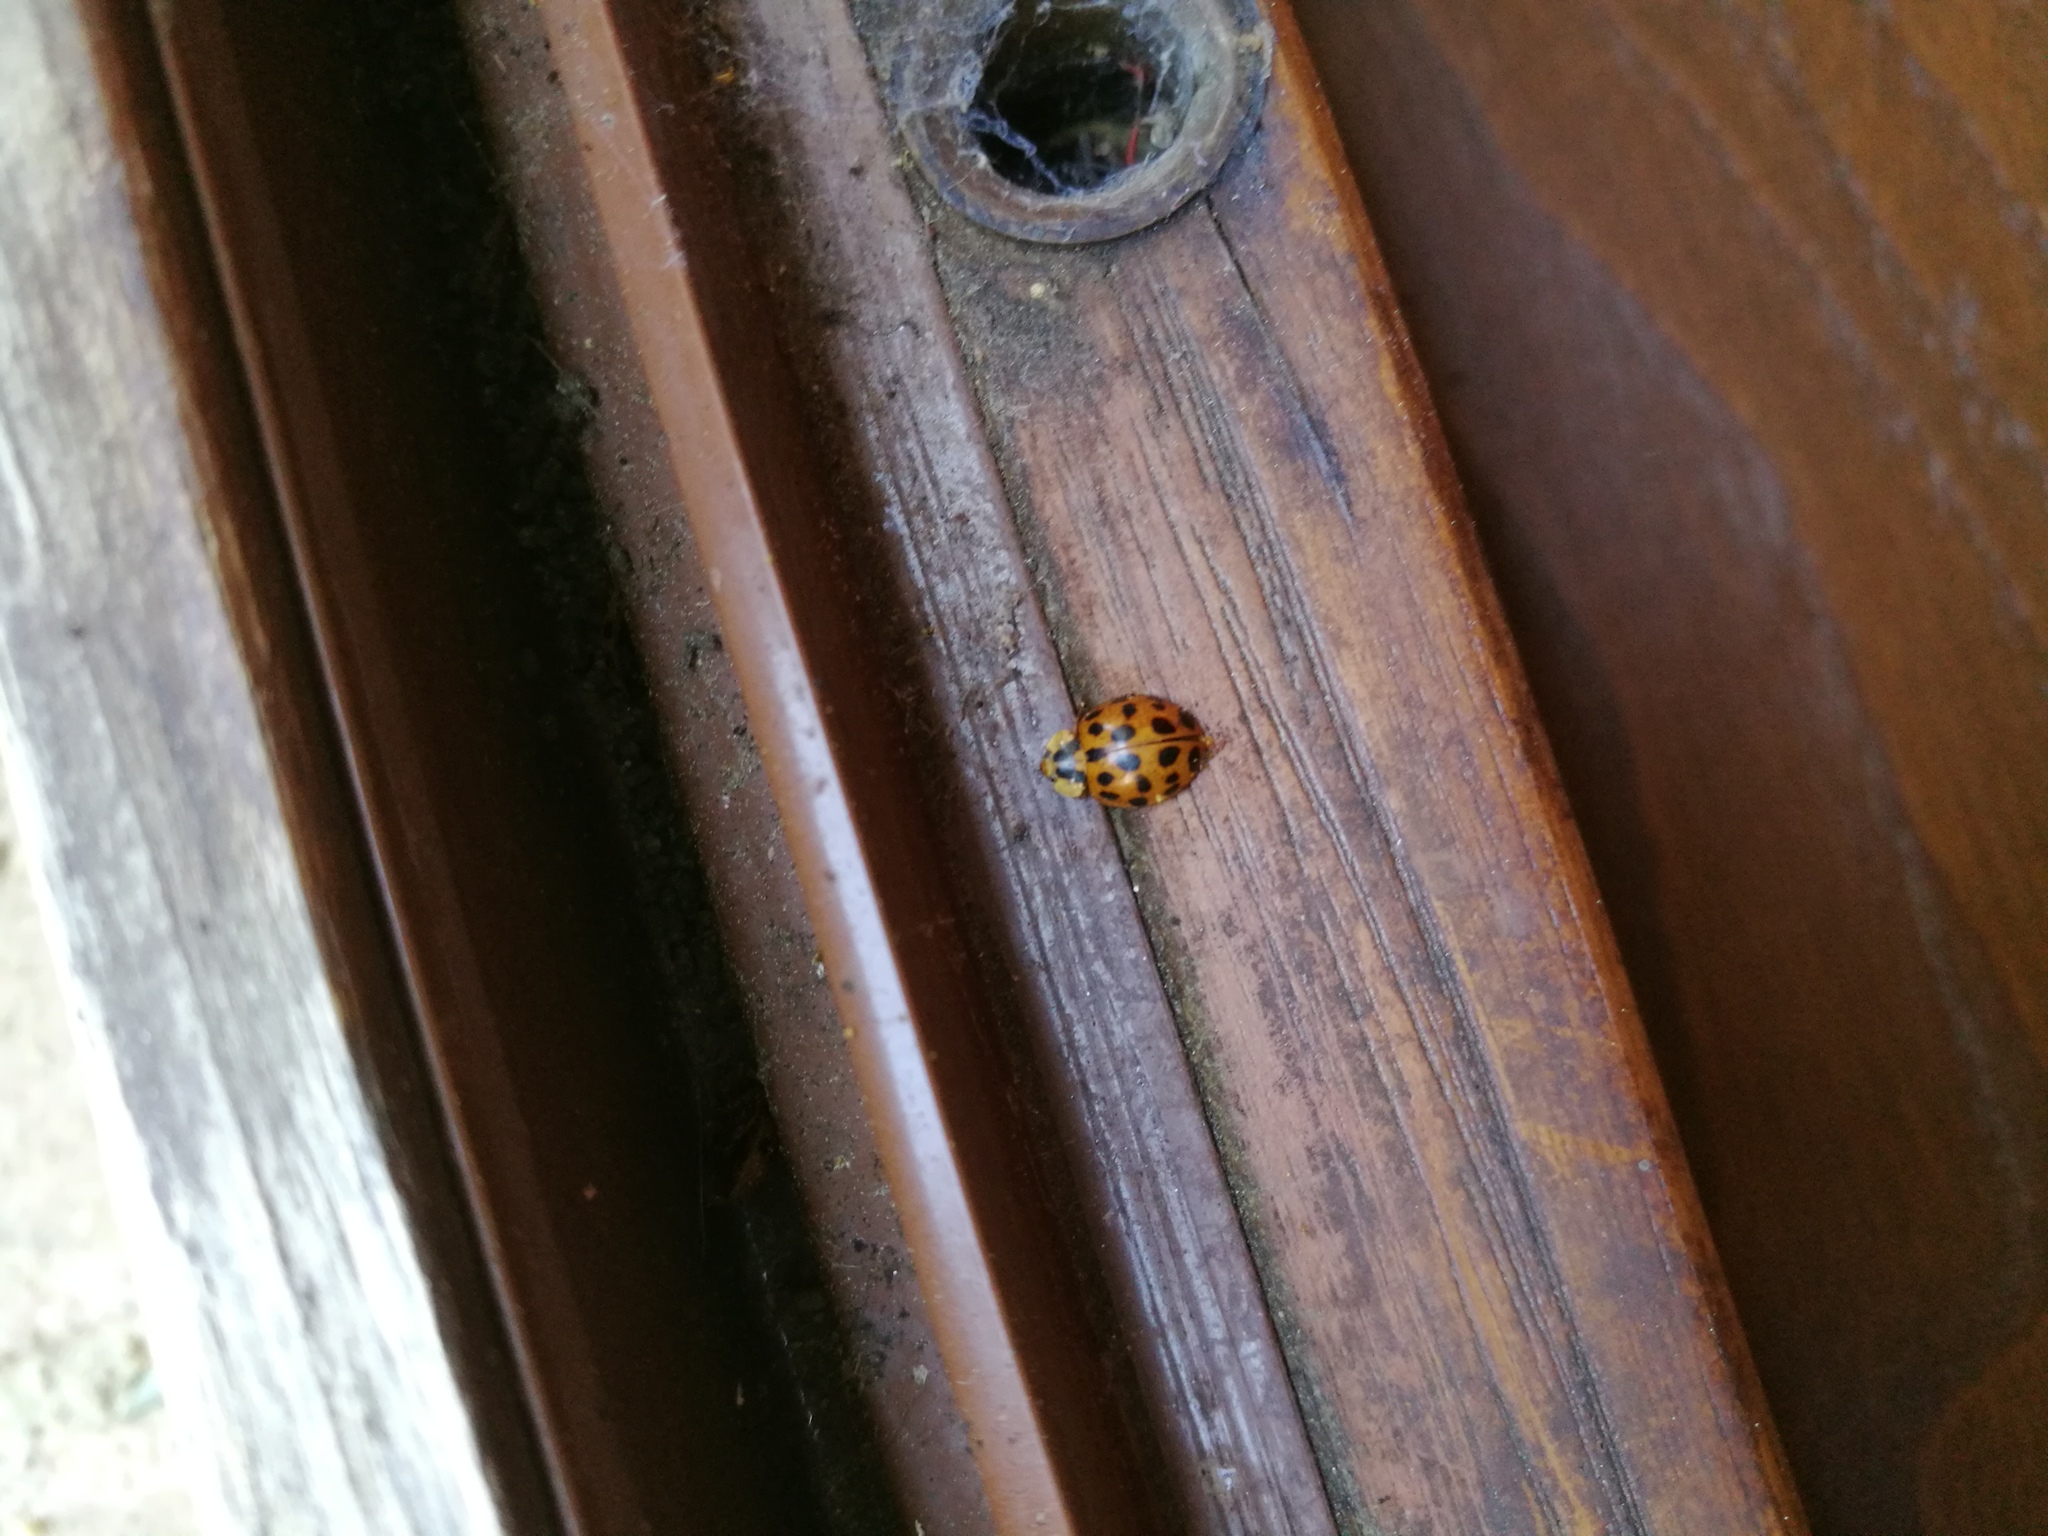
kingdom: Animalia
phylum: Arthropoda
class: Insecta
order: Coleoptera
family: Coccinellidae
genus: Harmonia
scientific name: Harmonia axyridis
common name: Harlequin ladybird
